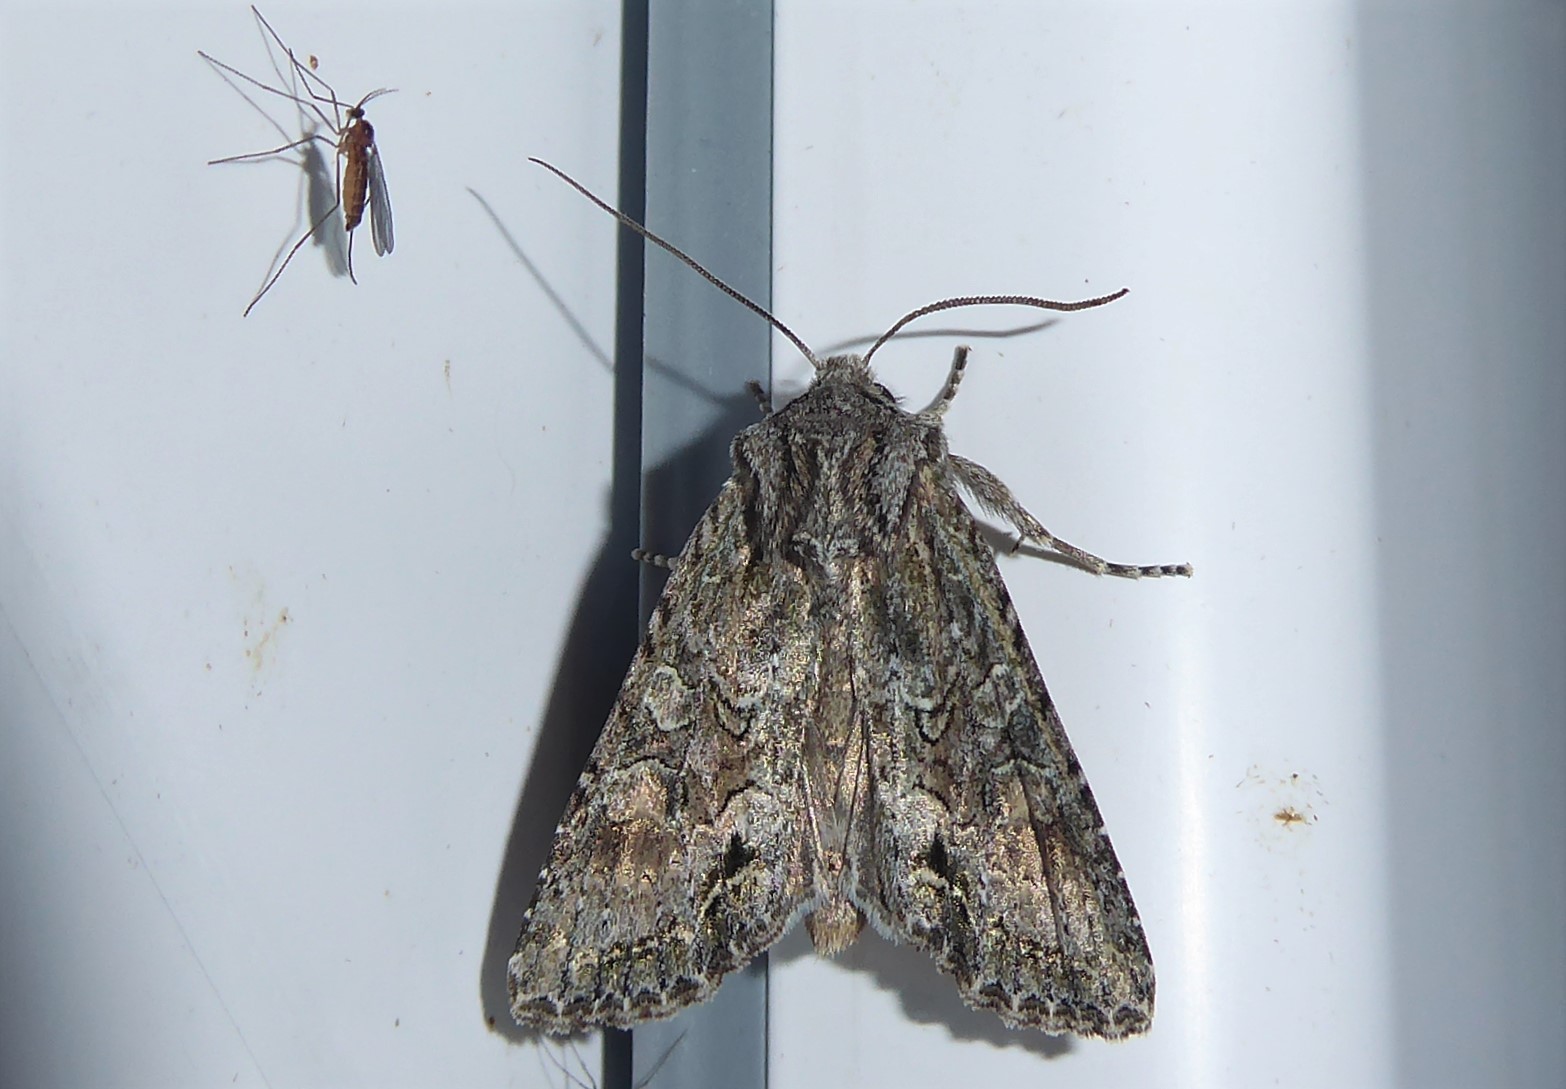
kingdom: Animalia
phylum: Arthropoda
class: Insecta
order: Lepidoptera
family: Noctuidae
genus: Ichneutica
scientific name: Ichneutica mutans
